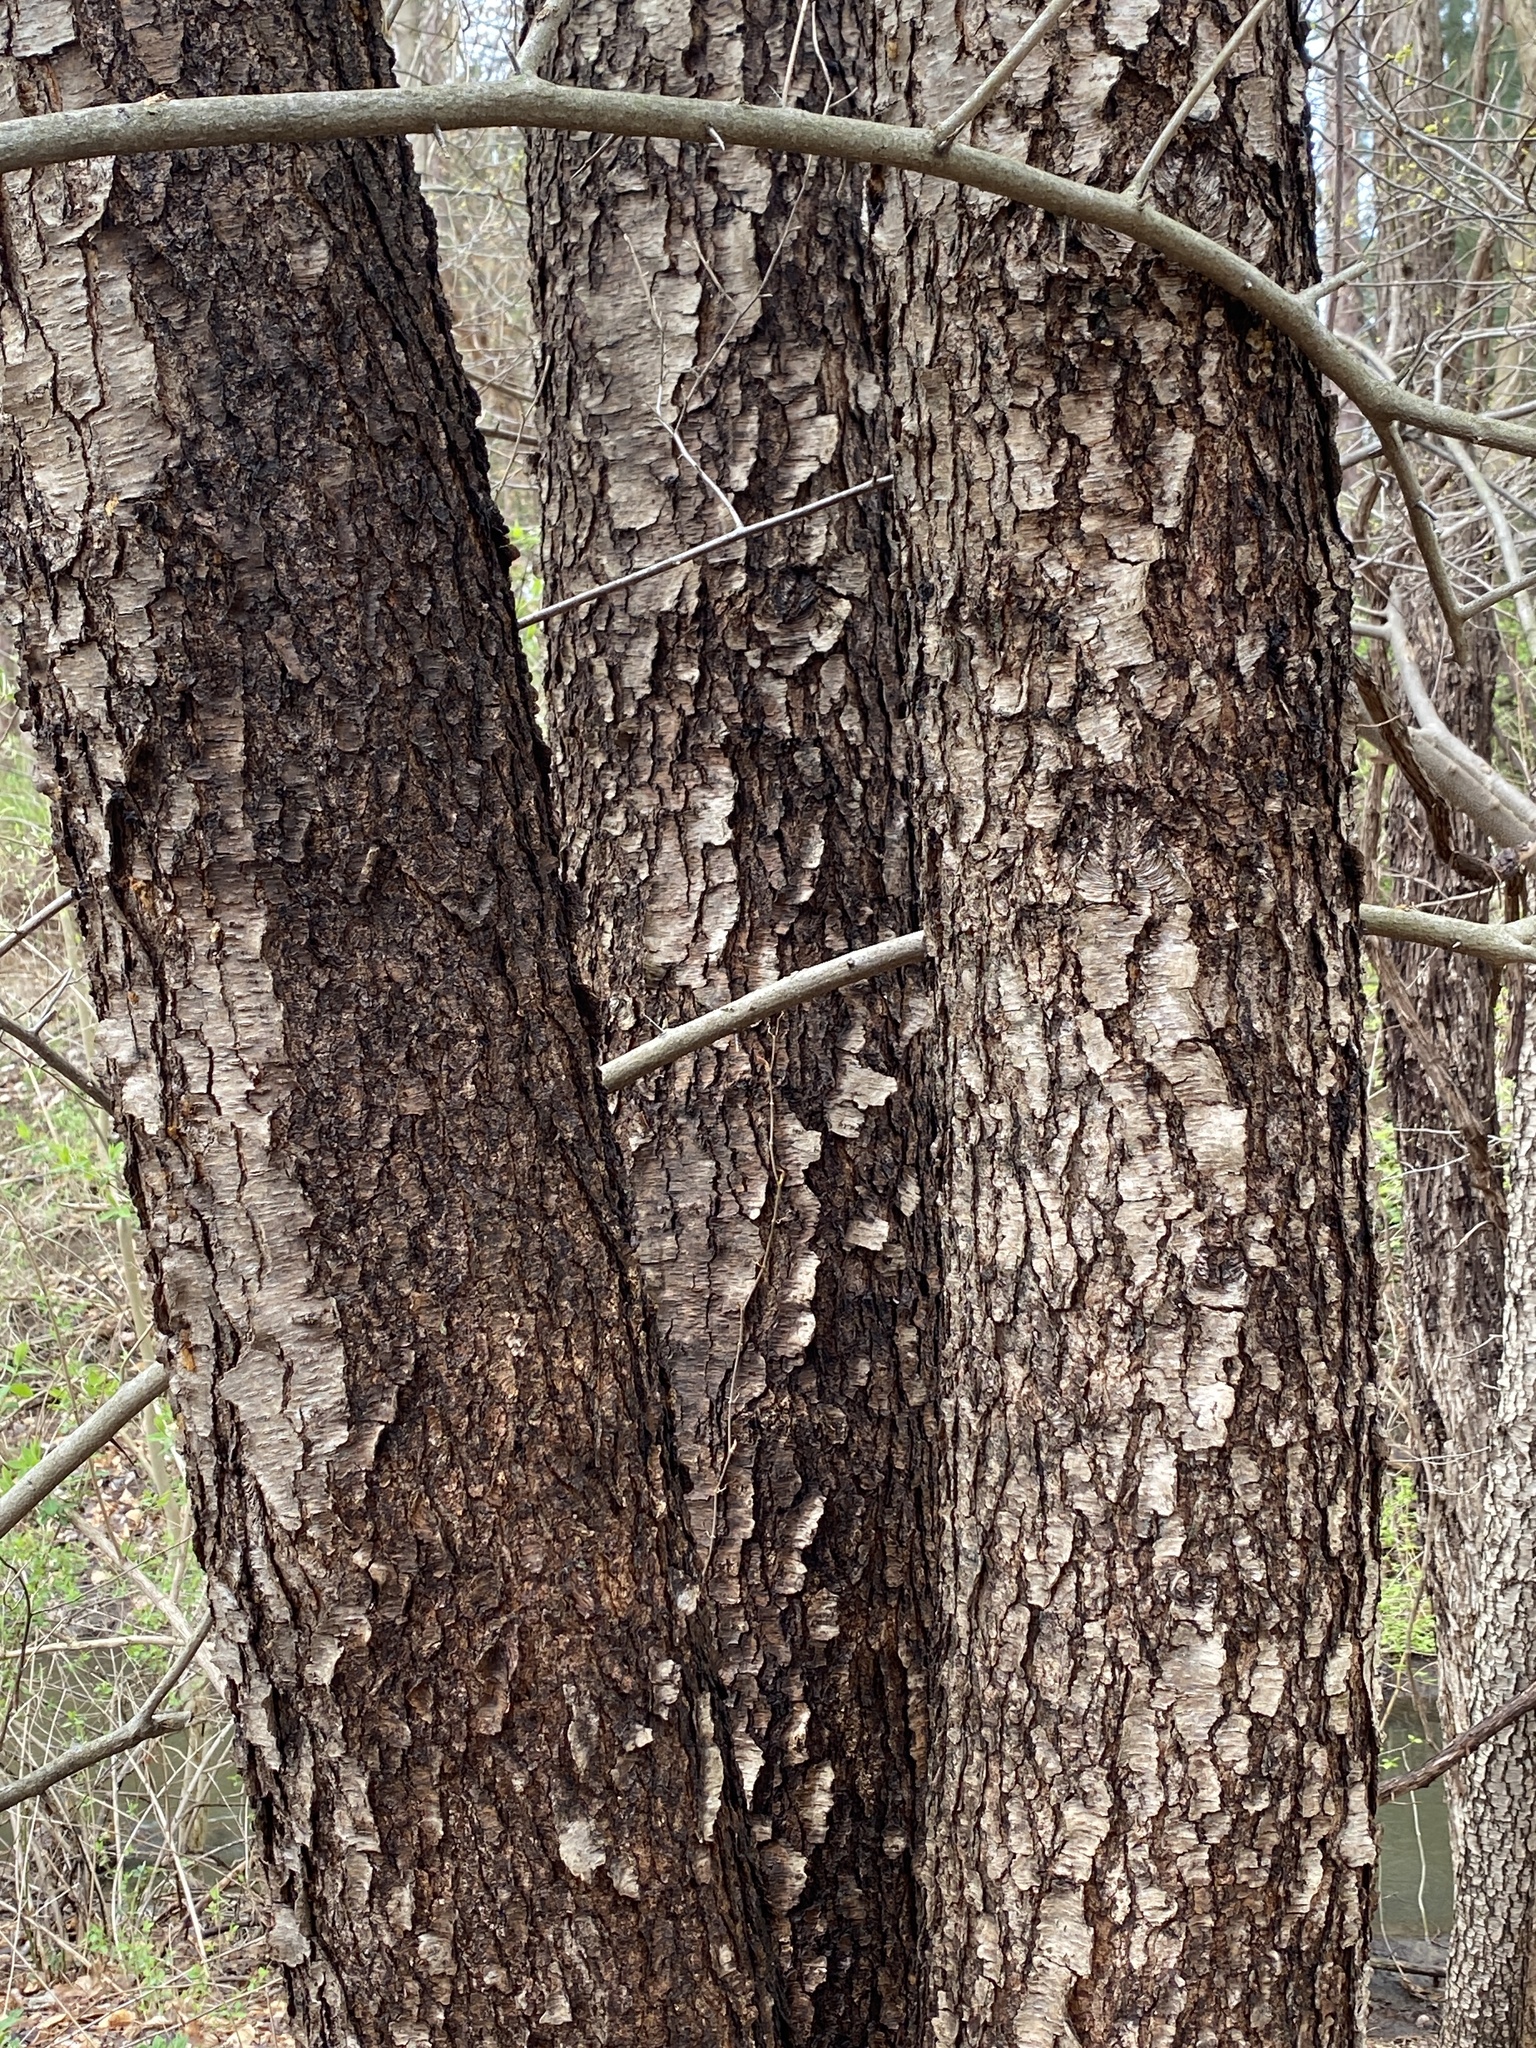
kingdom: Plantae
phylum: Tracheophyta
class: Magnoliopsida
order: Rosales
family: Rosaceae
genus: Prunus
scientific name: Prunus serotina
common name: Black cherry
